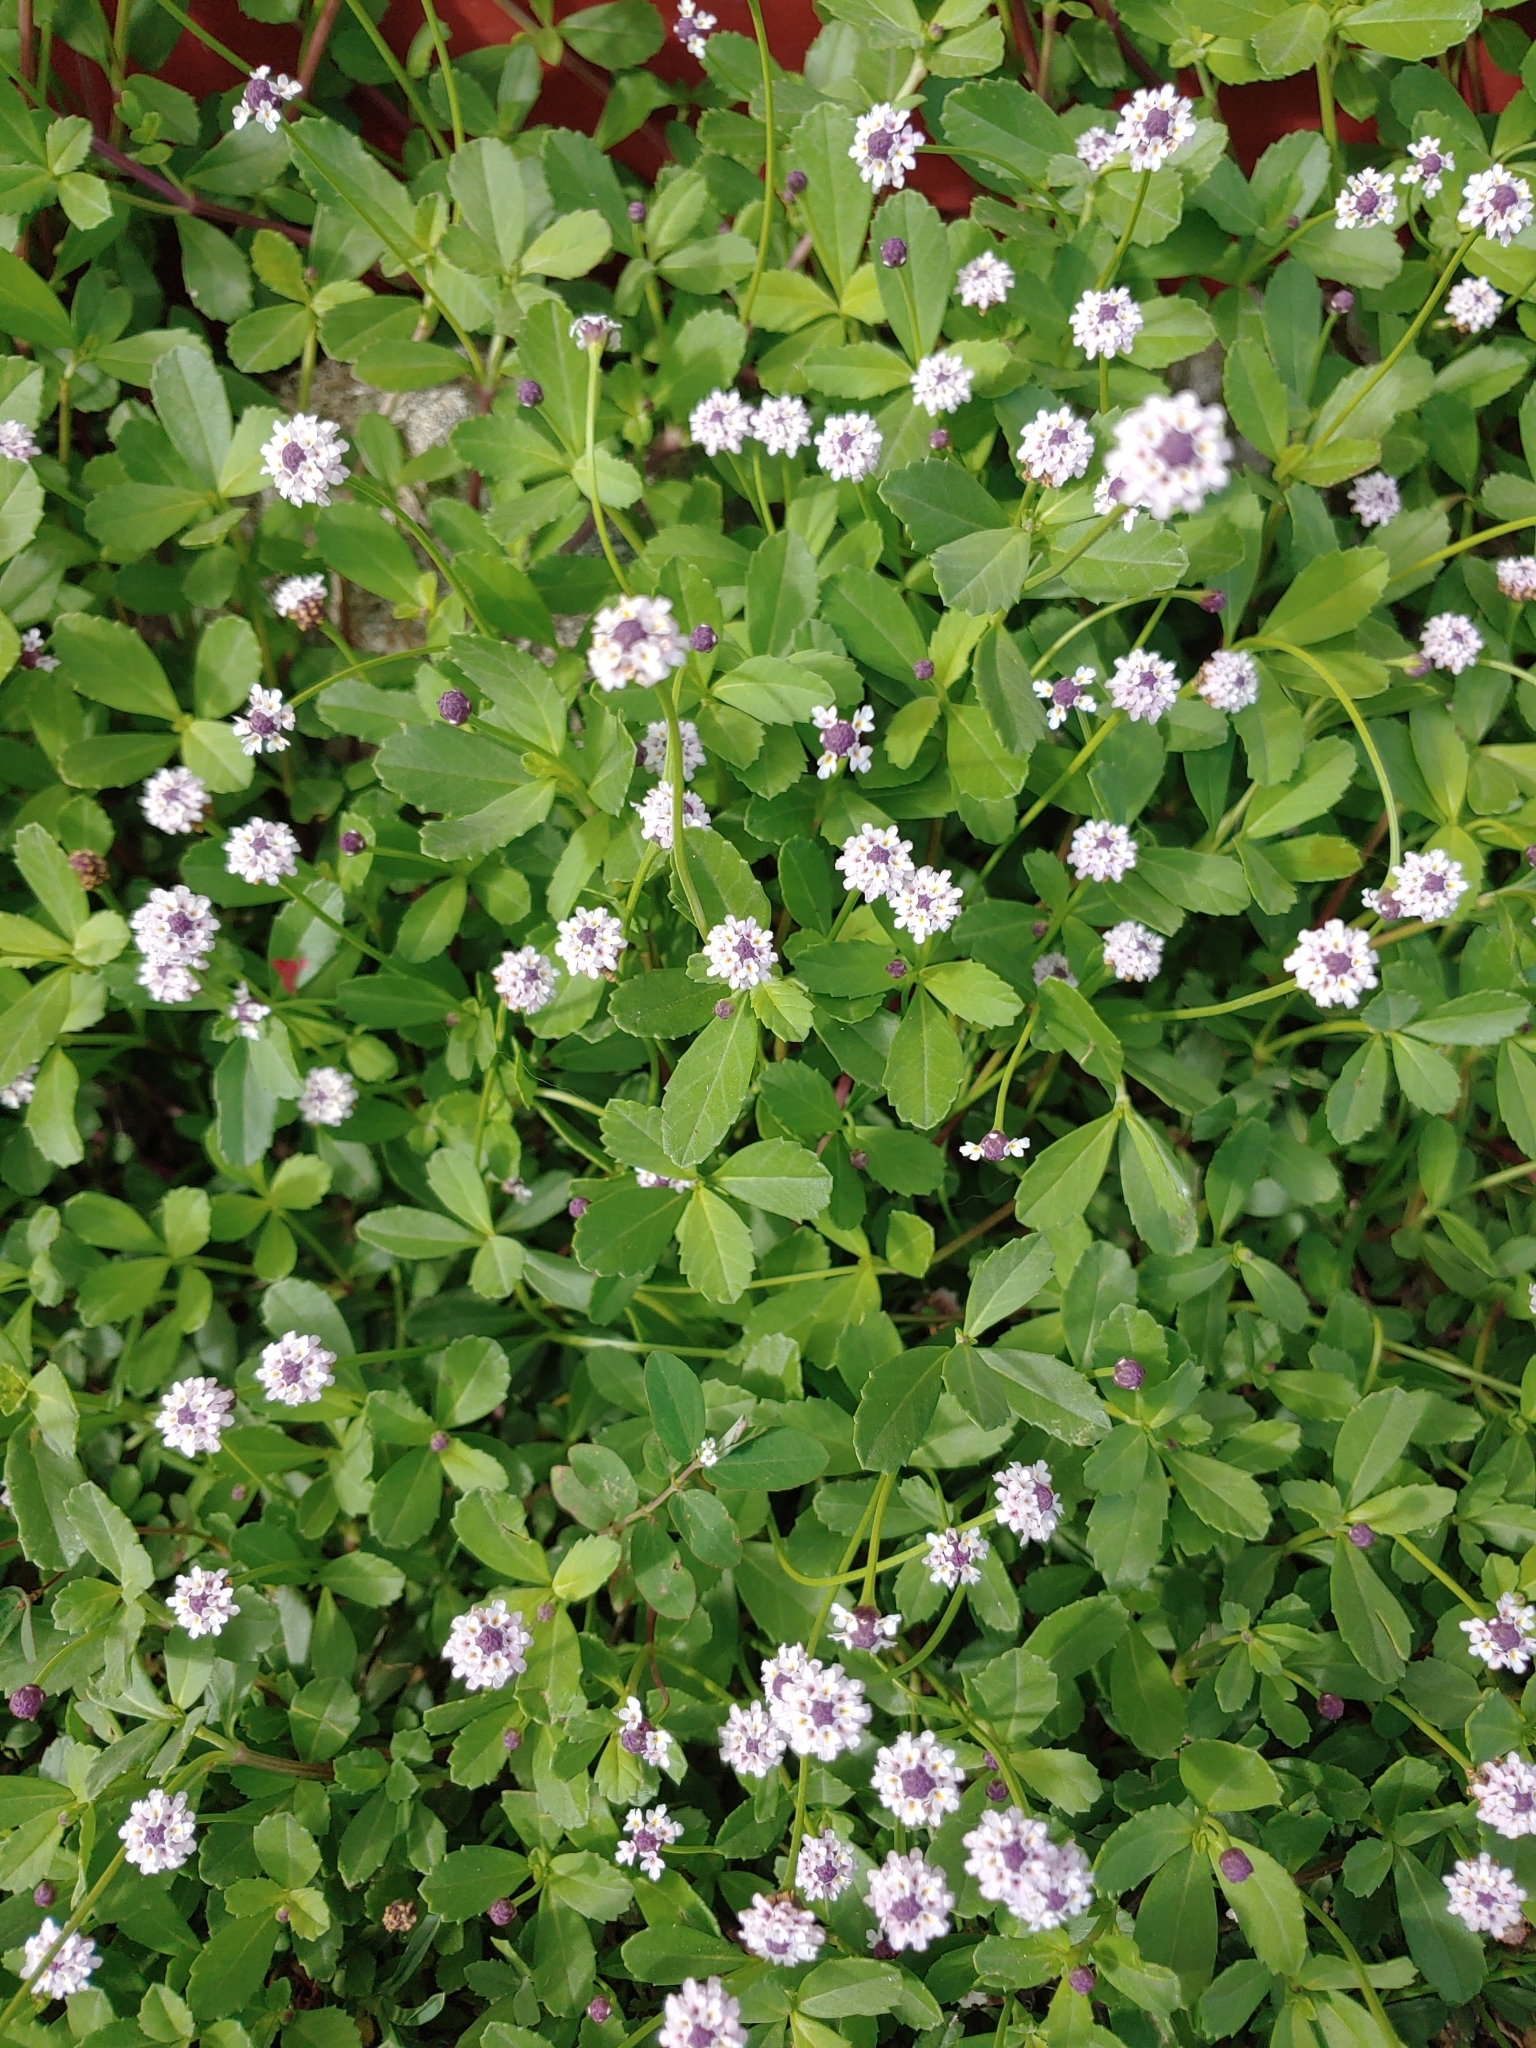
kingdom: Plantae
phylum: Tracheophyta
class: Magnoliopsida
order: Lamiales
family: Verbenaceae
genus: Phyla
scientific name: Phyla nodiflora
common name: Frogfruit
